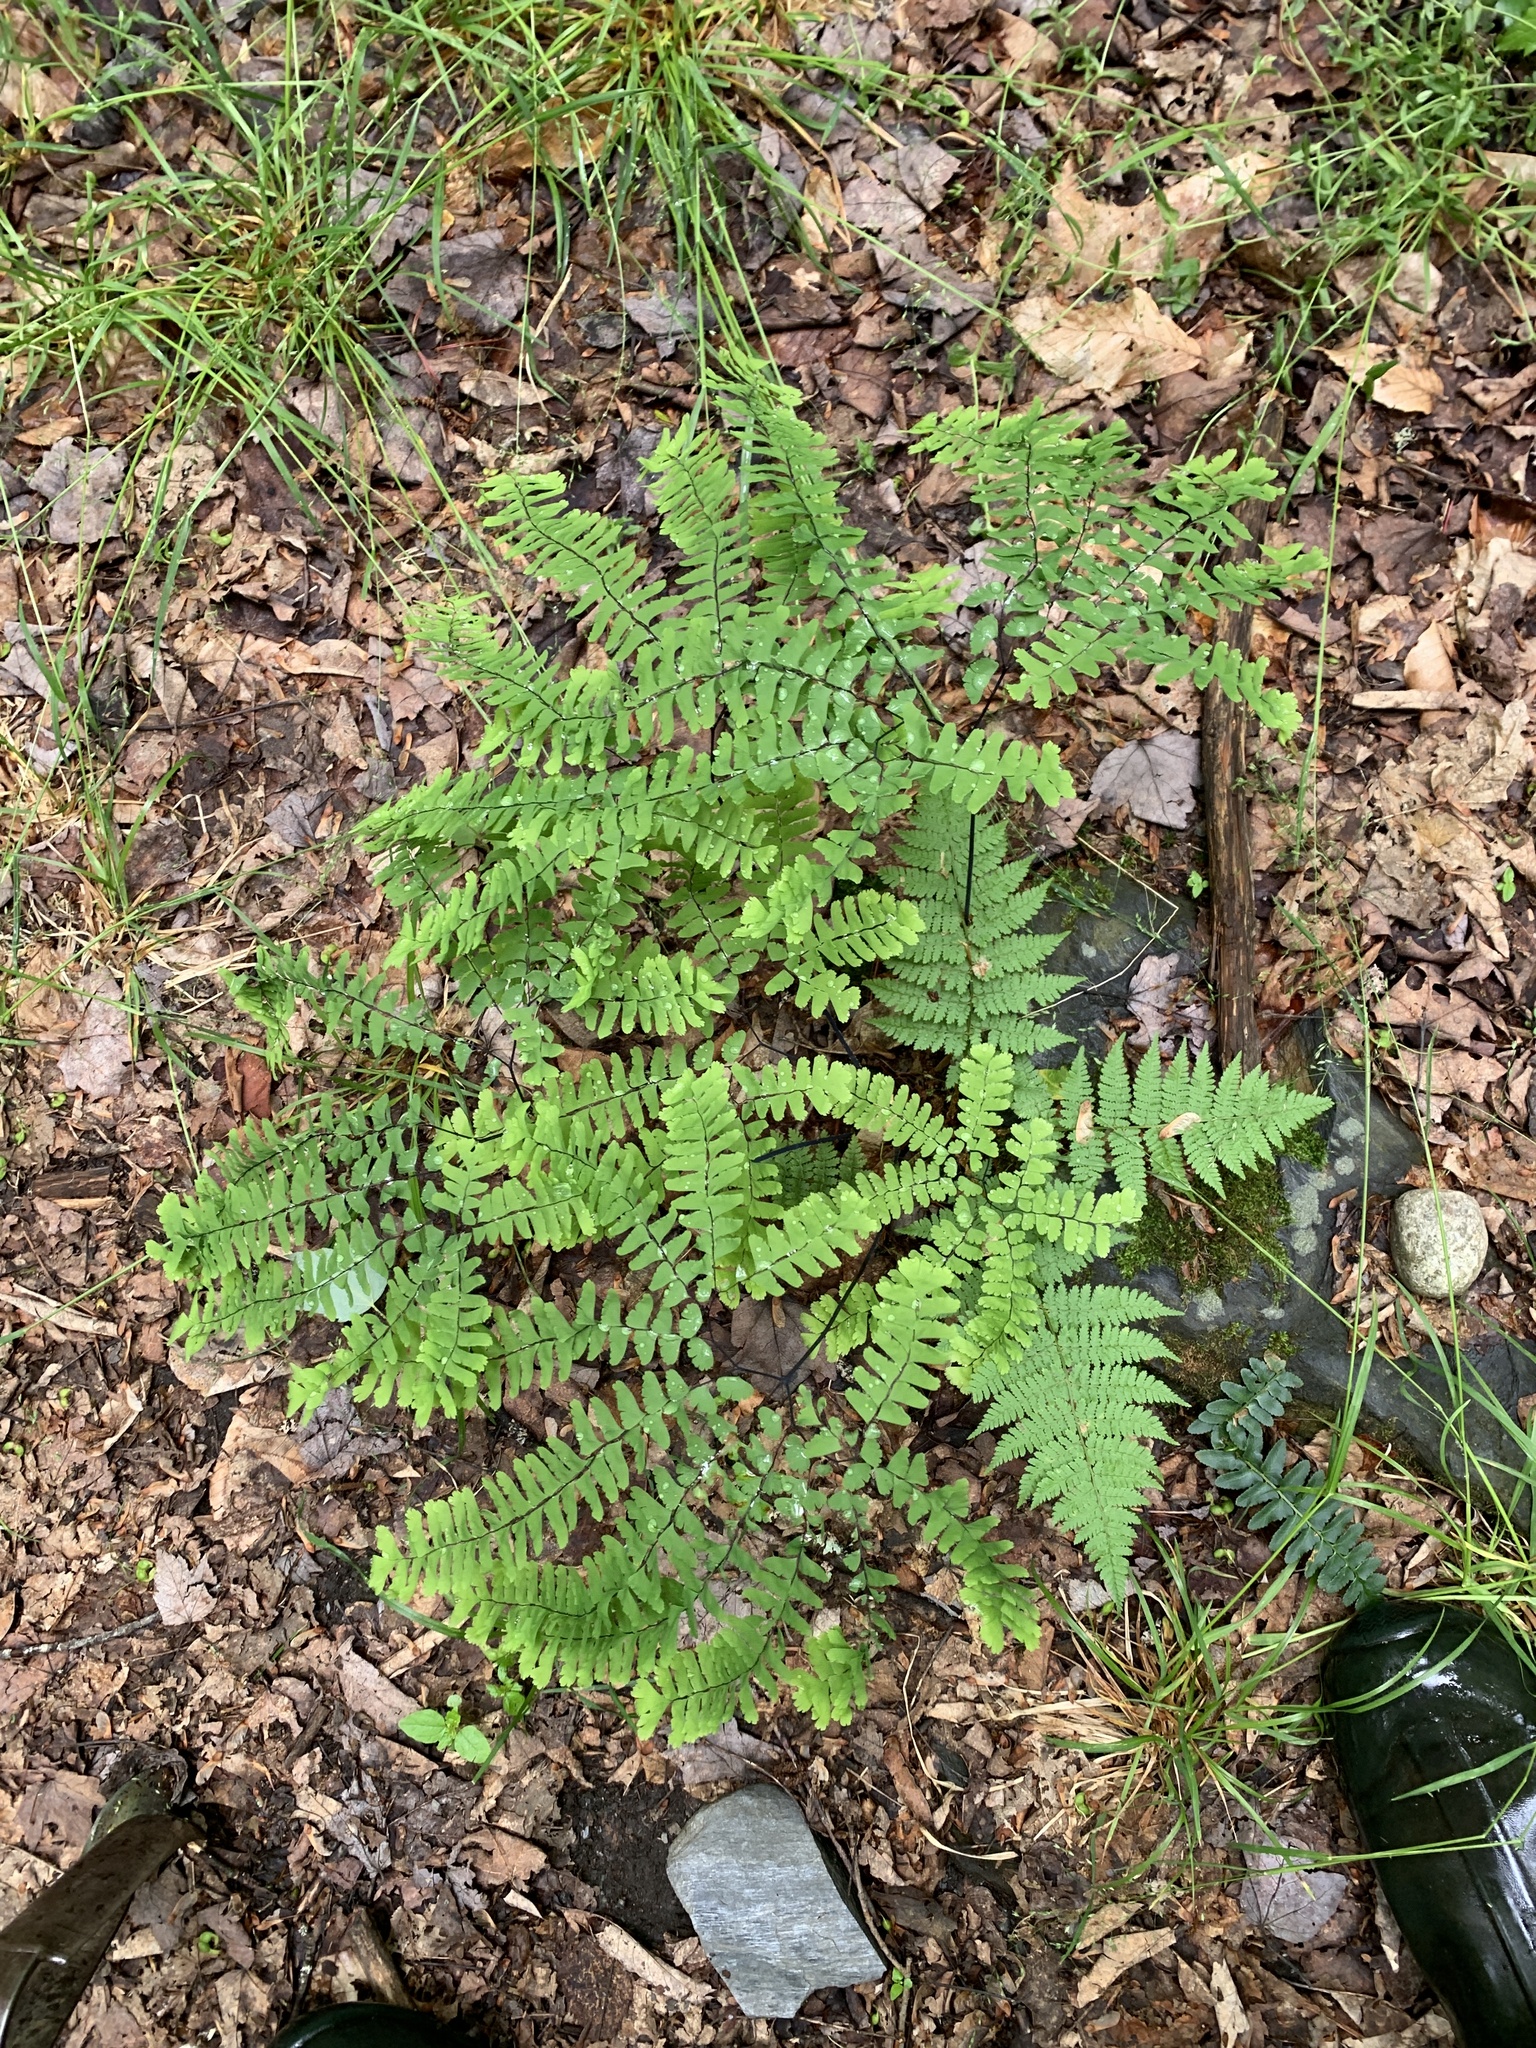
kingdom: Plantae
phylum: Tracheophyta
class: Polypodiopsida
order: Polypodiales
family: Pteridaceae
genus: Adiantum
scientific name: Adiantum pedatum
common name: Five-finger fern
